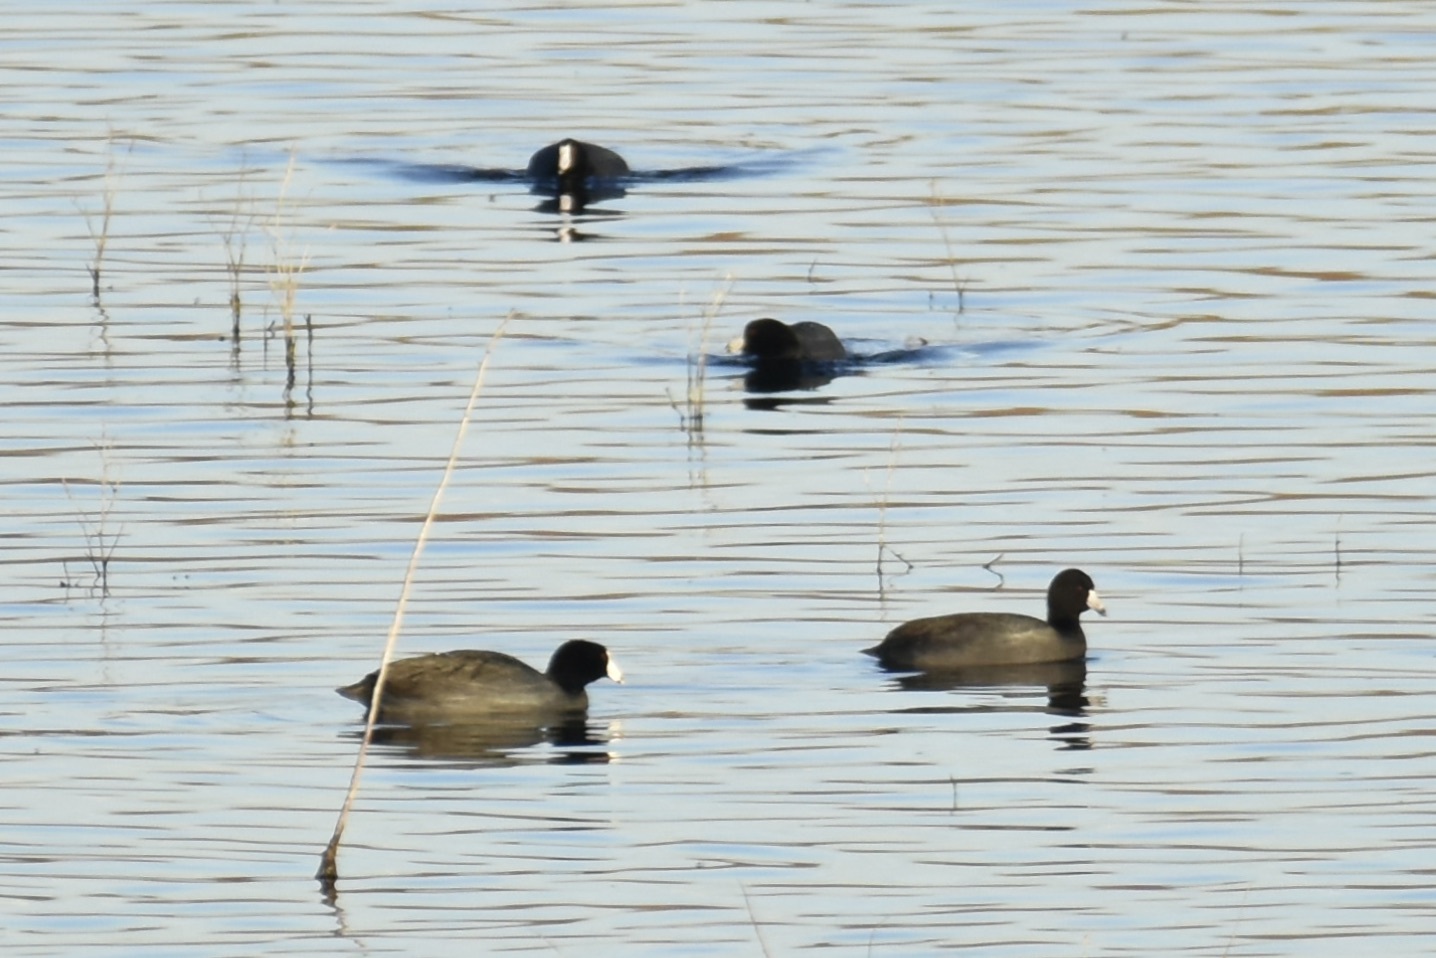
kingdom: Animalia
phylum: Chordata
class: Aves
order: Gruiformes
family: Rallidae
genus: Fulica
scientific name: Fulica americana
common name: American coot
